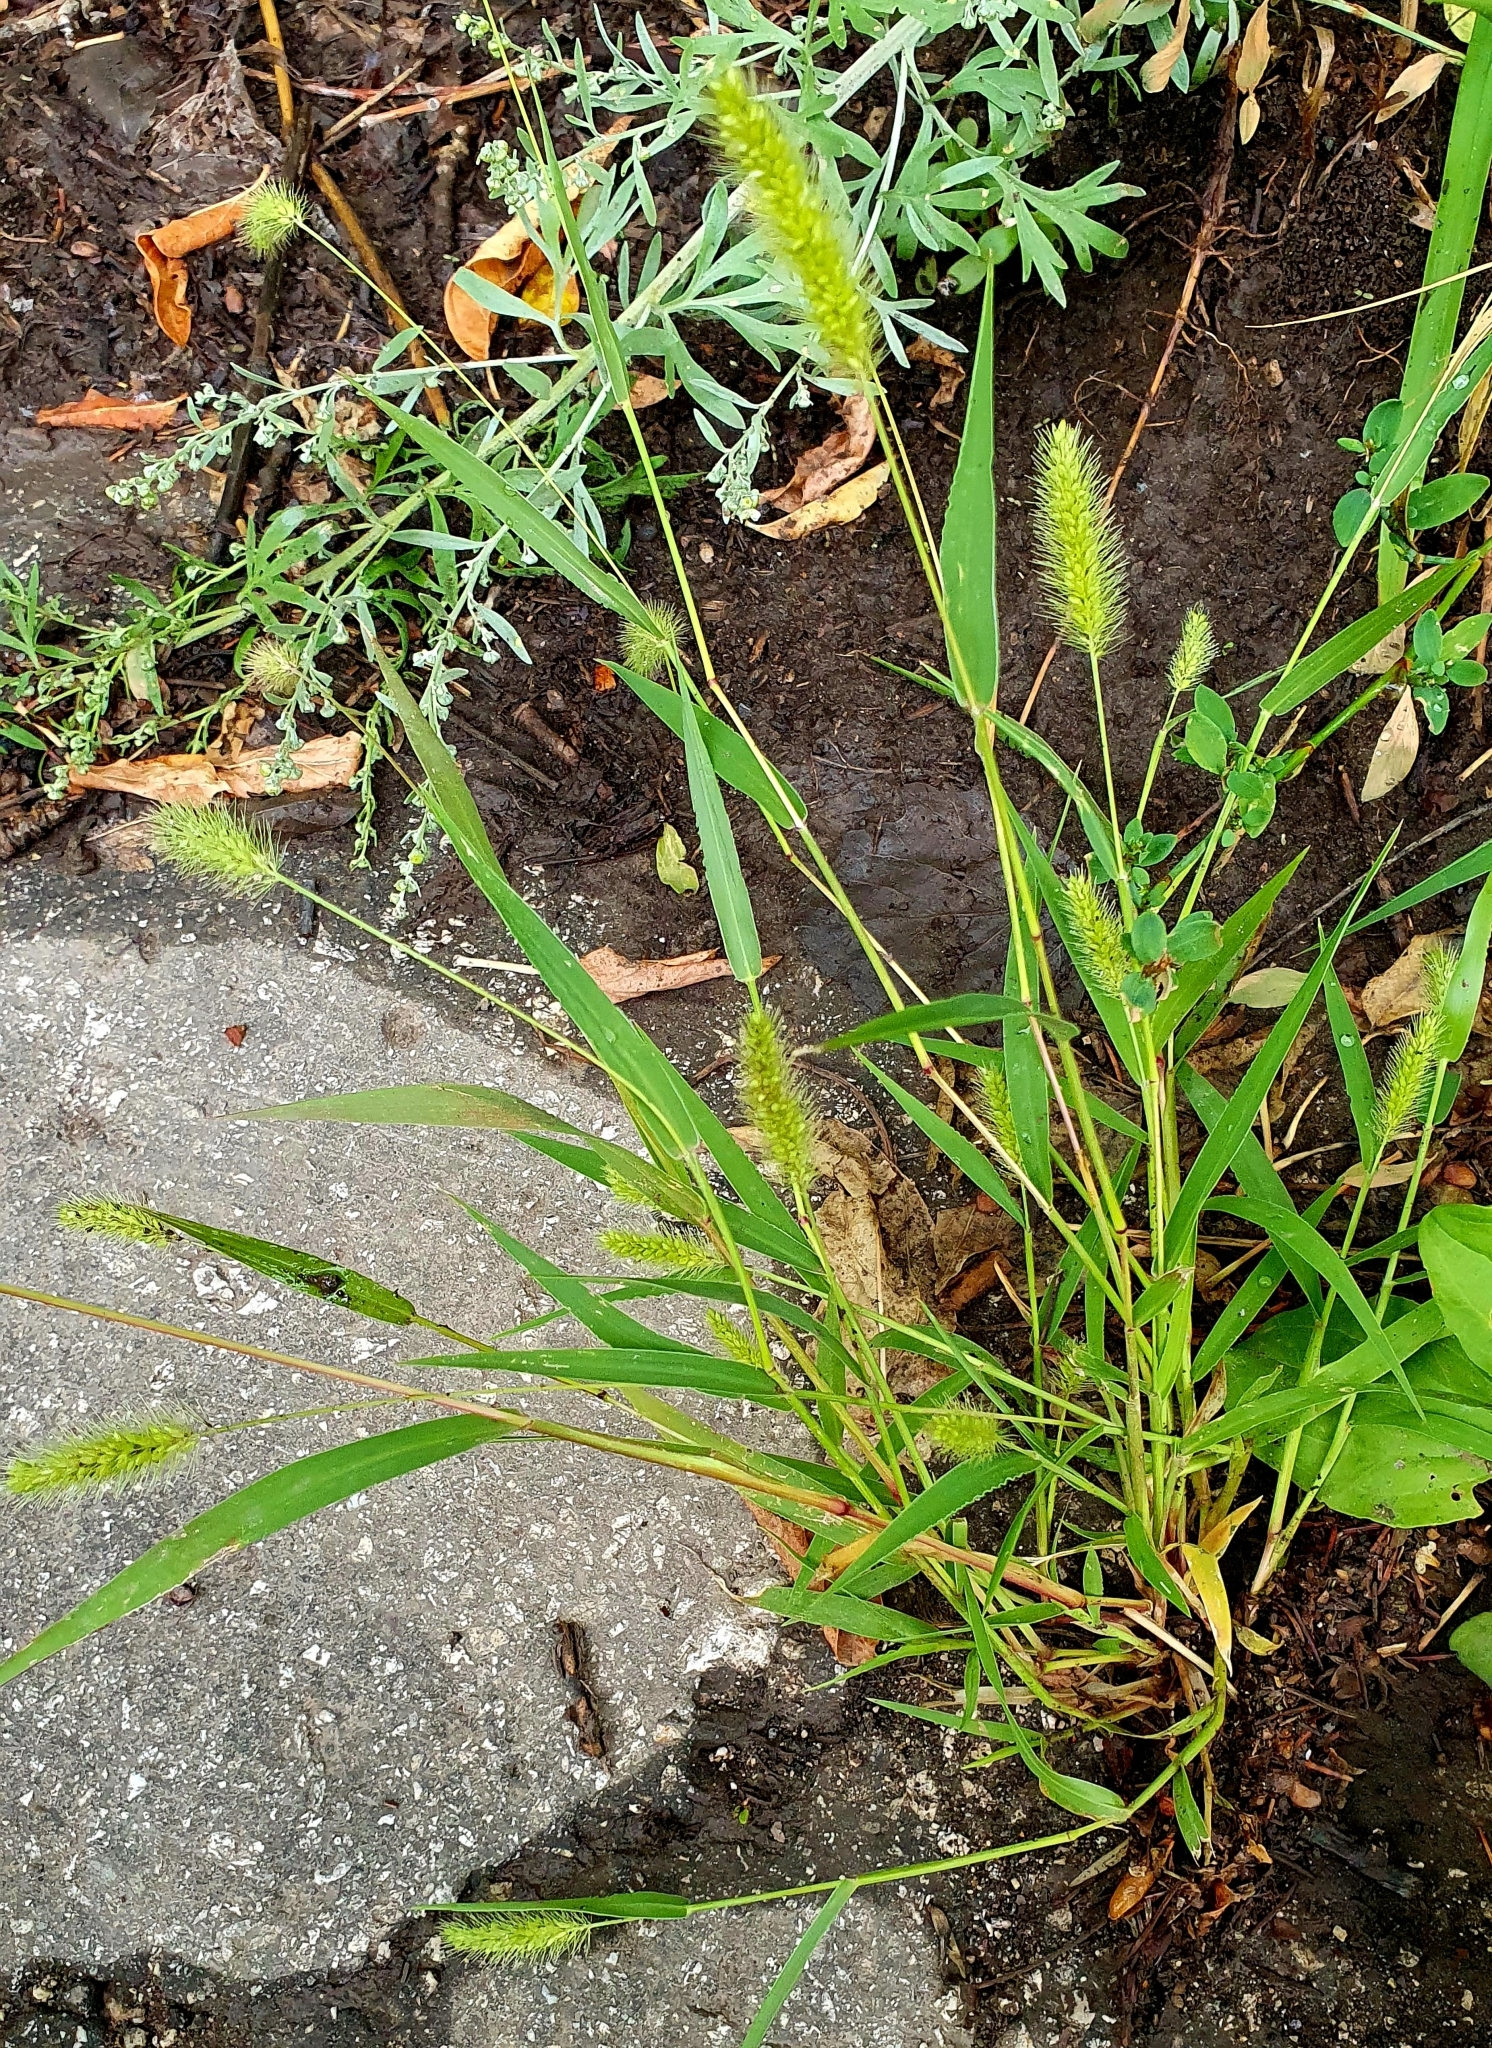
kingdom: Plantae
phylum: Tracheophyta
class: Liliopsida
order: Poales
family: Poaceae
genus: Setaria
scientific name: Setaria viridis
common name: Green bristlegrass
